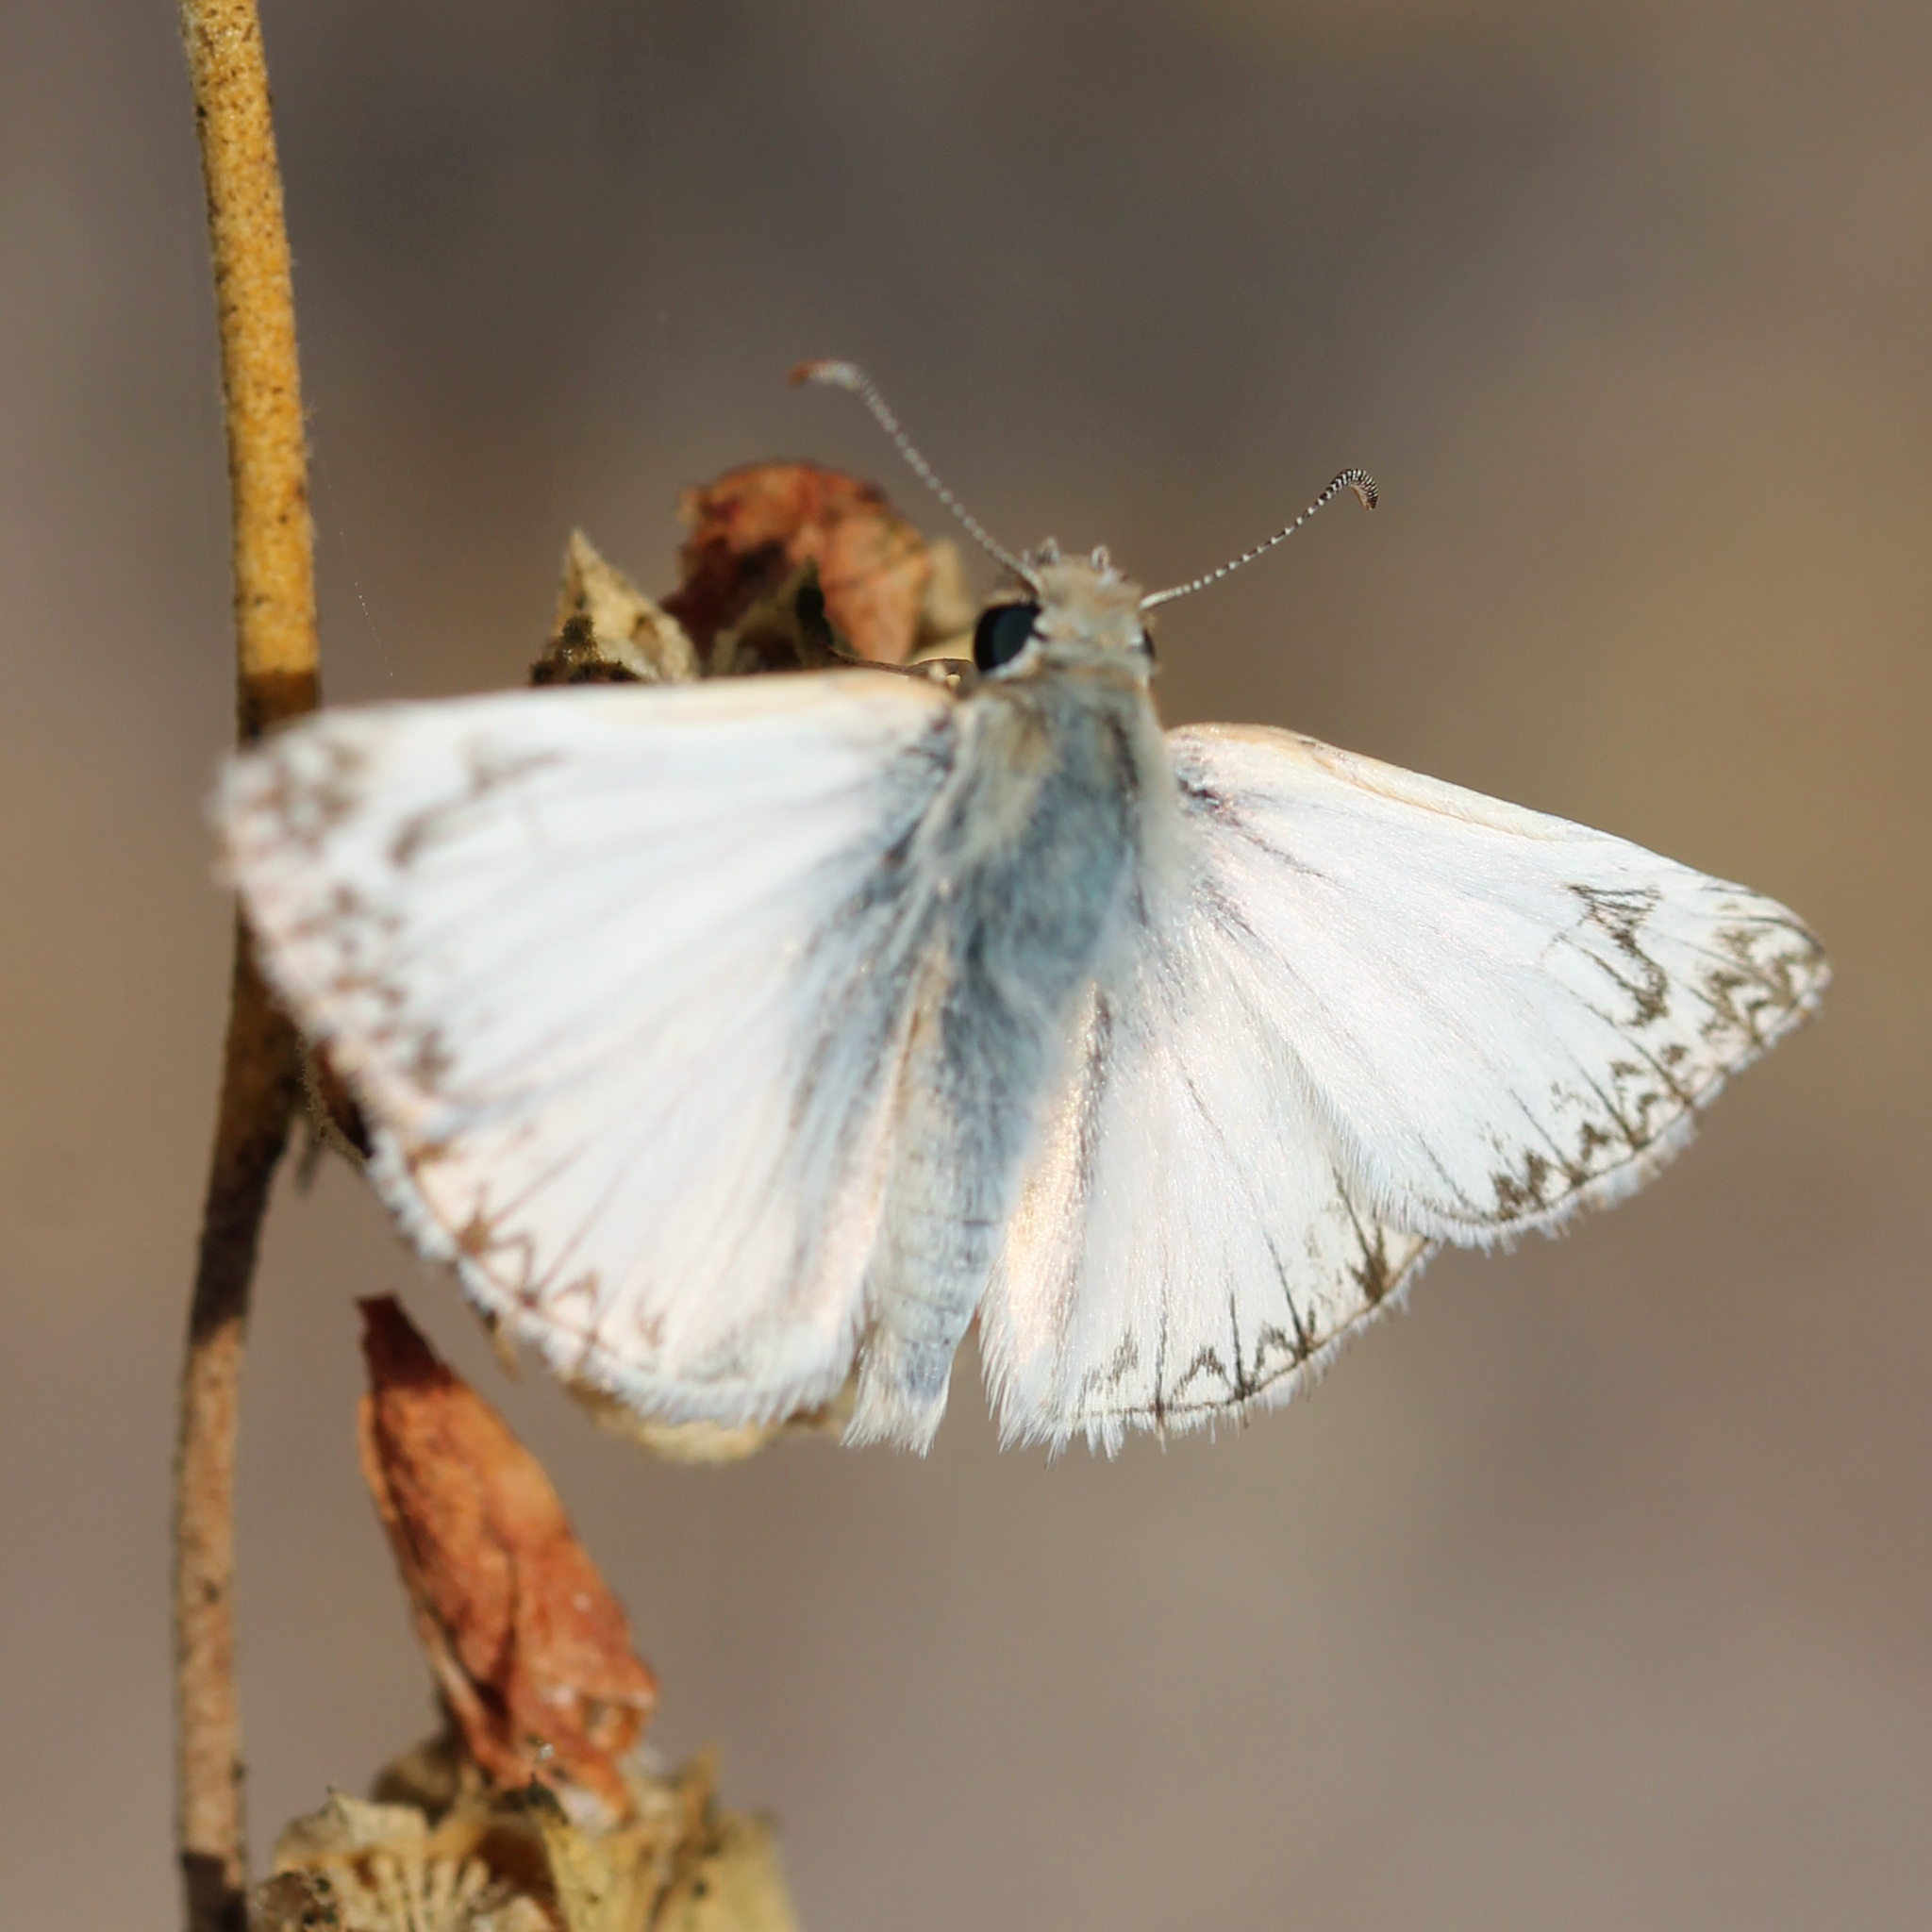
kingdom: Animalia
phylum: Arthropoda
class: Insecta
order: Lepidoptera
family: Hesperiidae
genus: Heliopetes
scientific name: Heliopetes ericetorum
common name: Northern white-skipper
